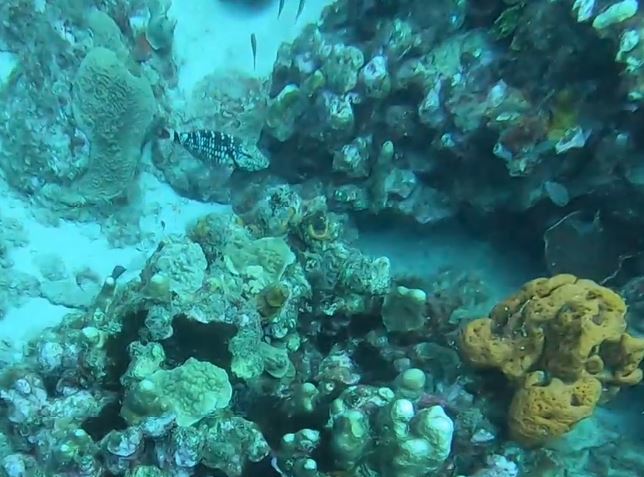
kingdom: Animalia
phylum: Chordata
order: Perciformes
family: Scaridae
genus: Sparisoma
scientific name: Sparisoma viride
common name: Stoplight parrotfish
